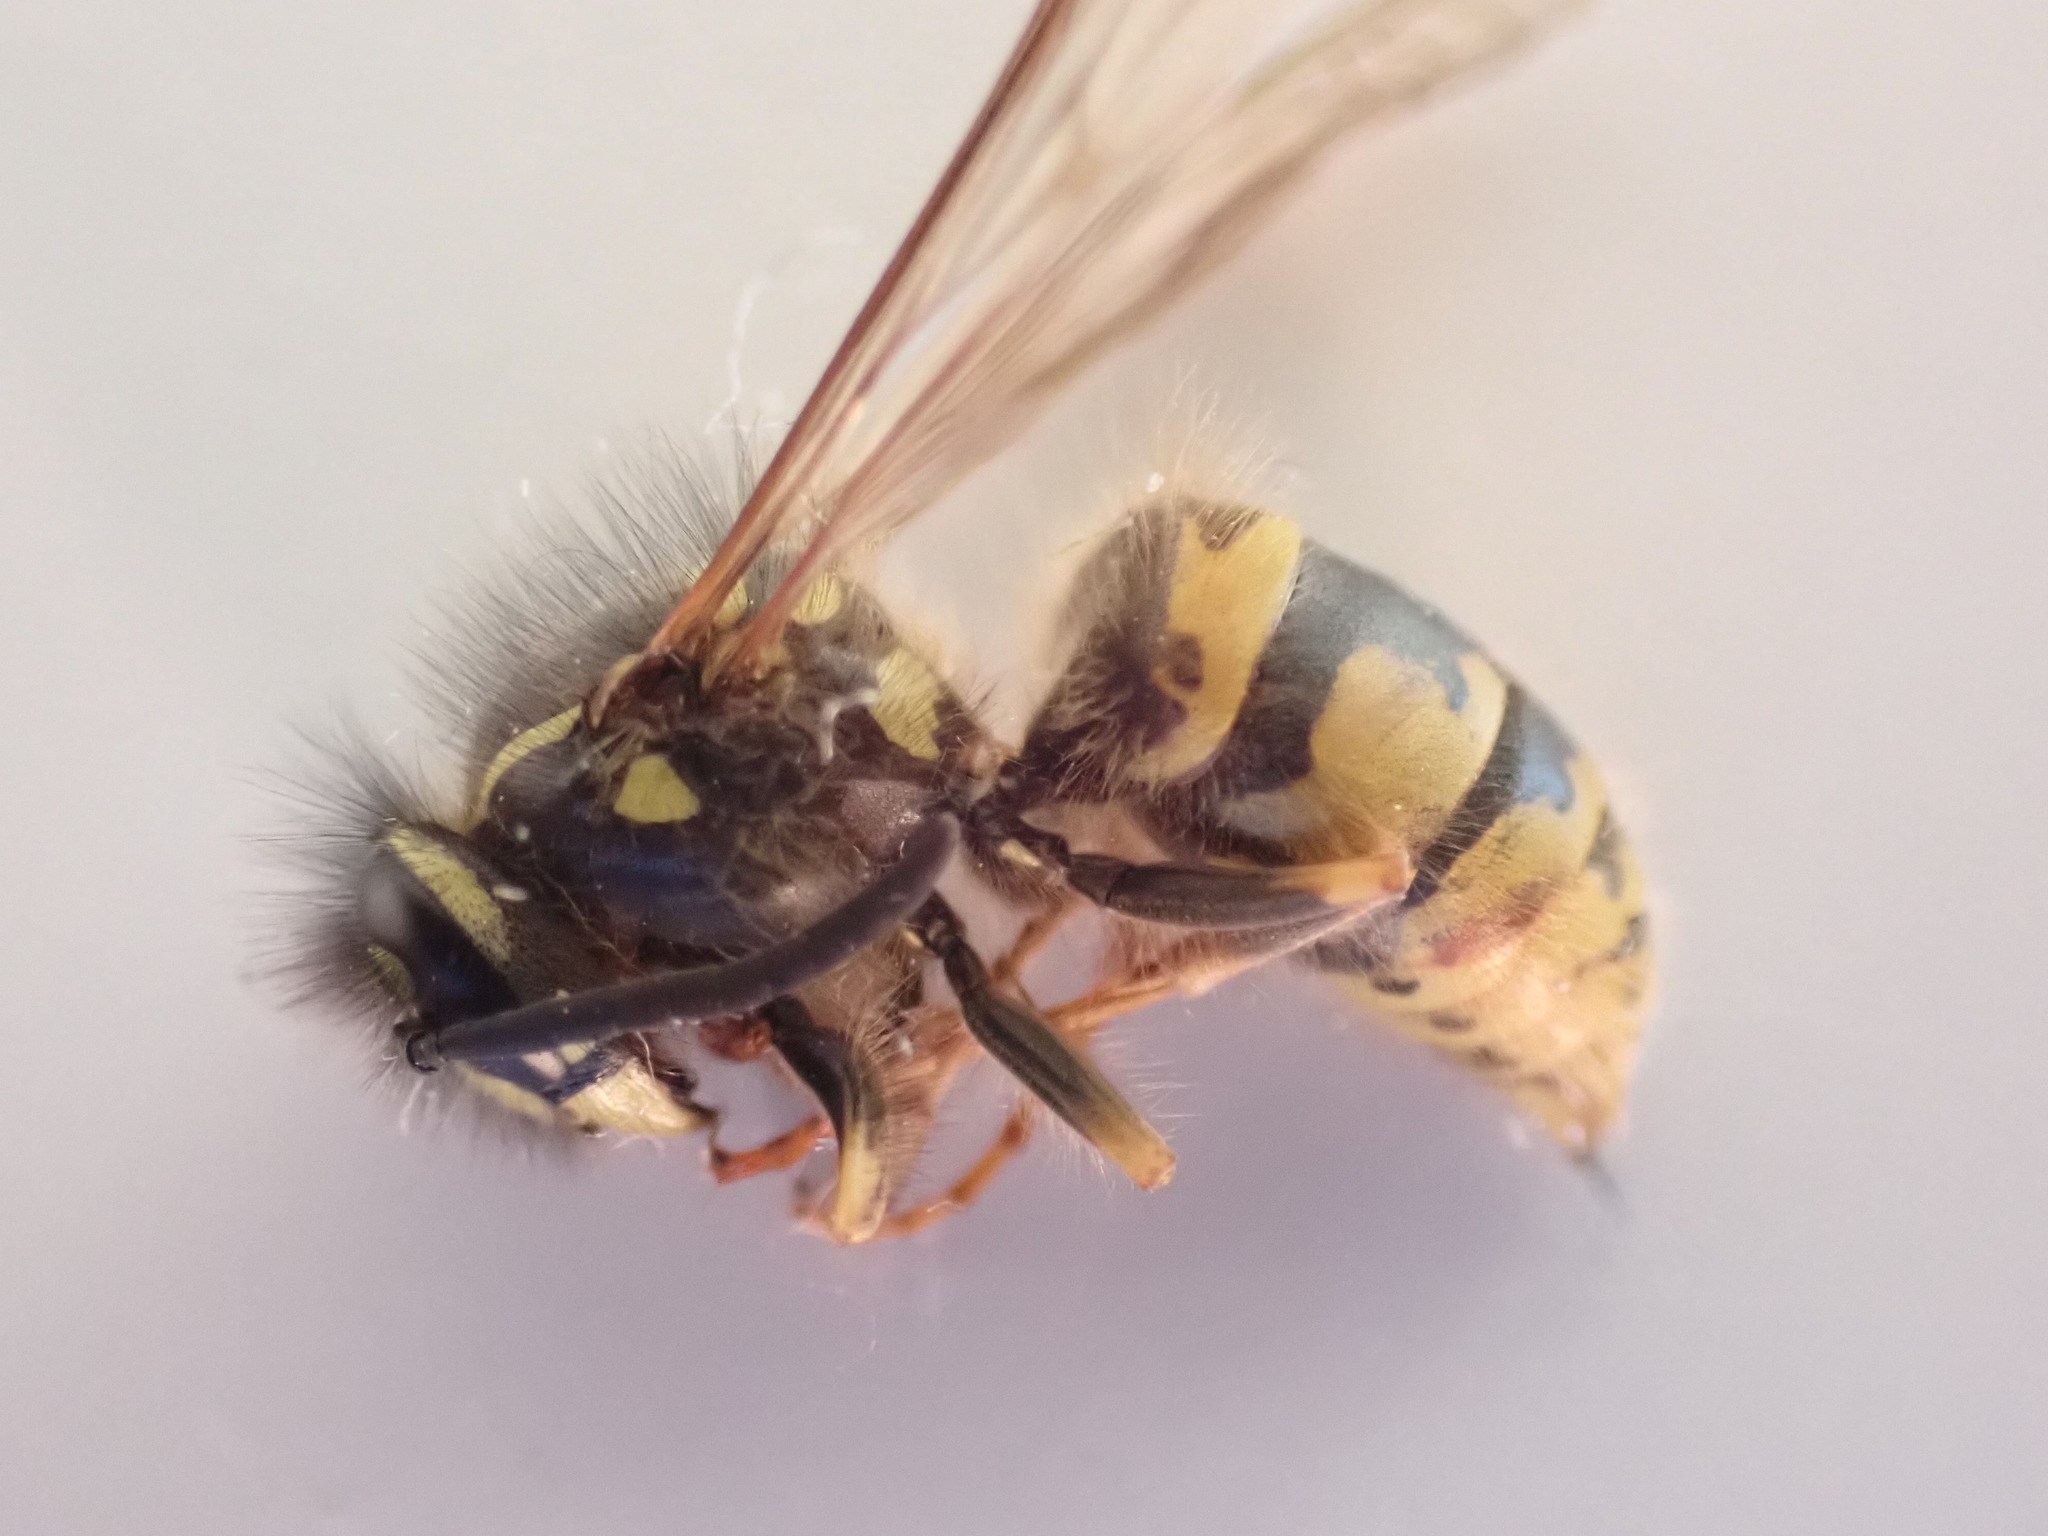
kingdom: Animalia
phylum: Arthropoda
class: Insecta
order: Hymenoptera
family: Vespidae
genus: Vespula
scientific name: Vespula vulgaris
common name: Common wasp
